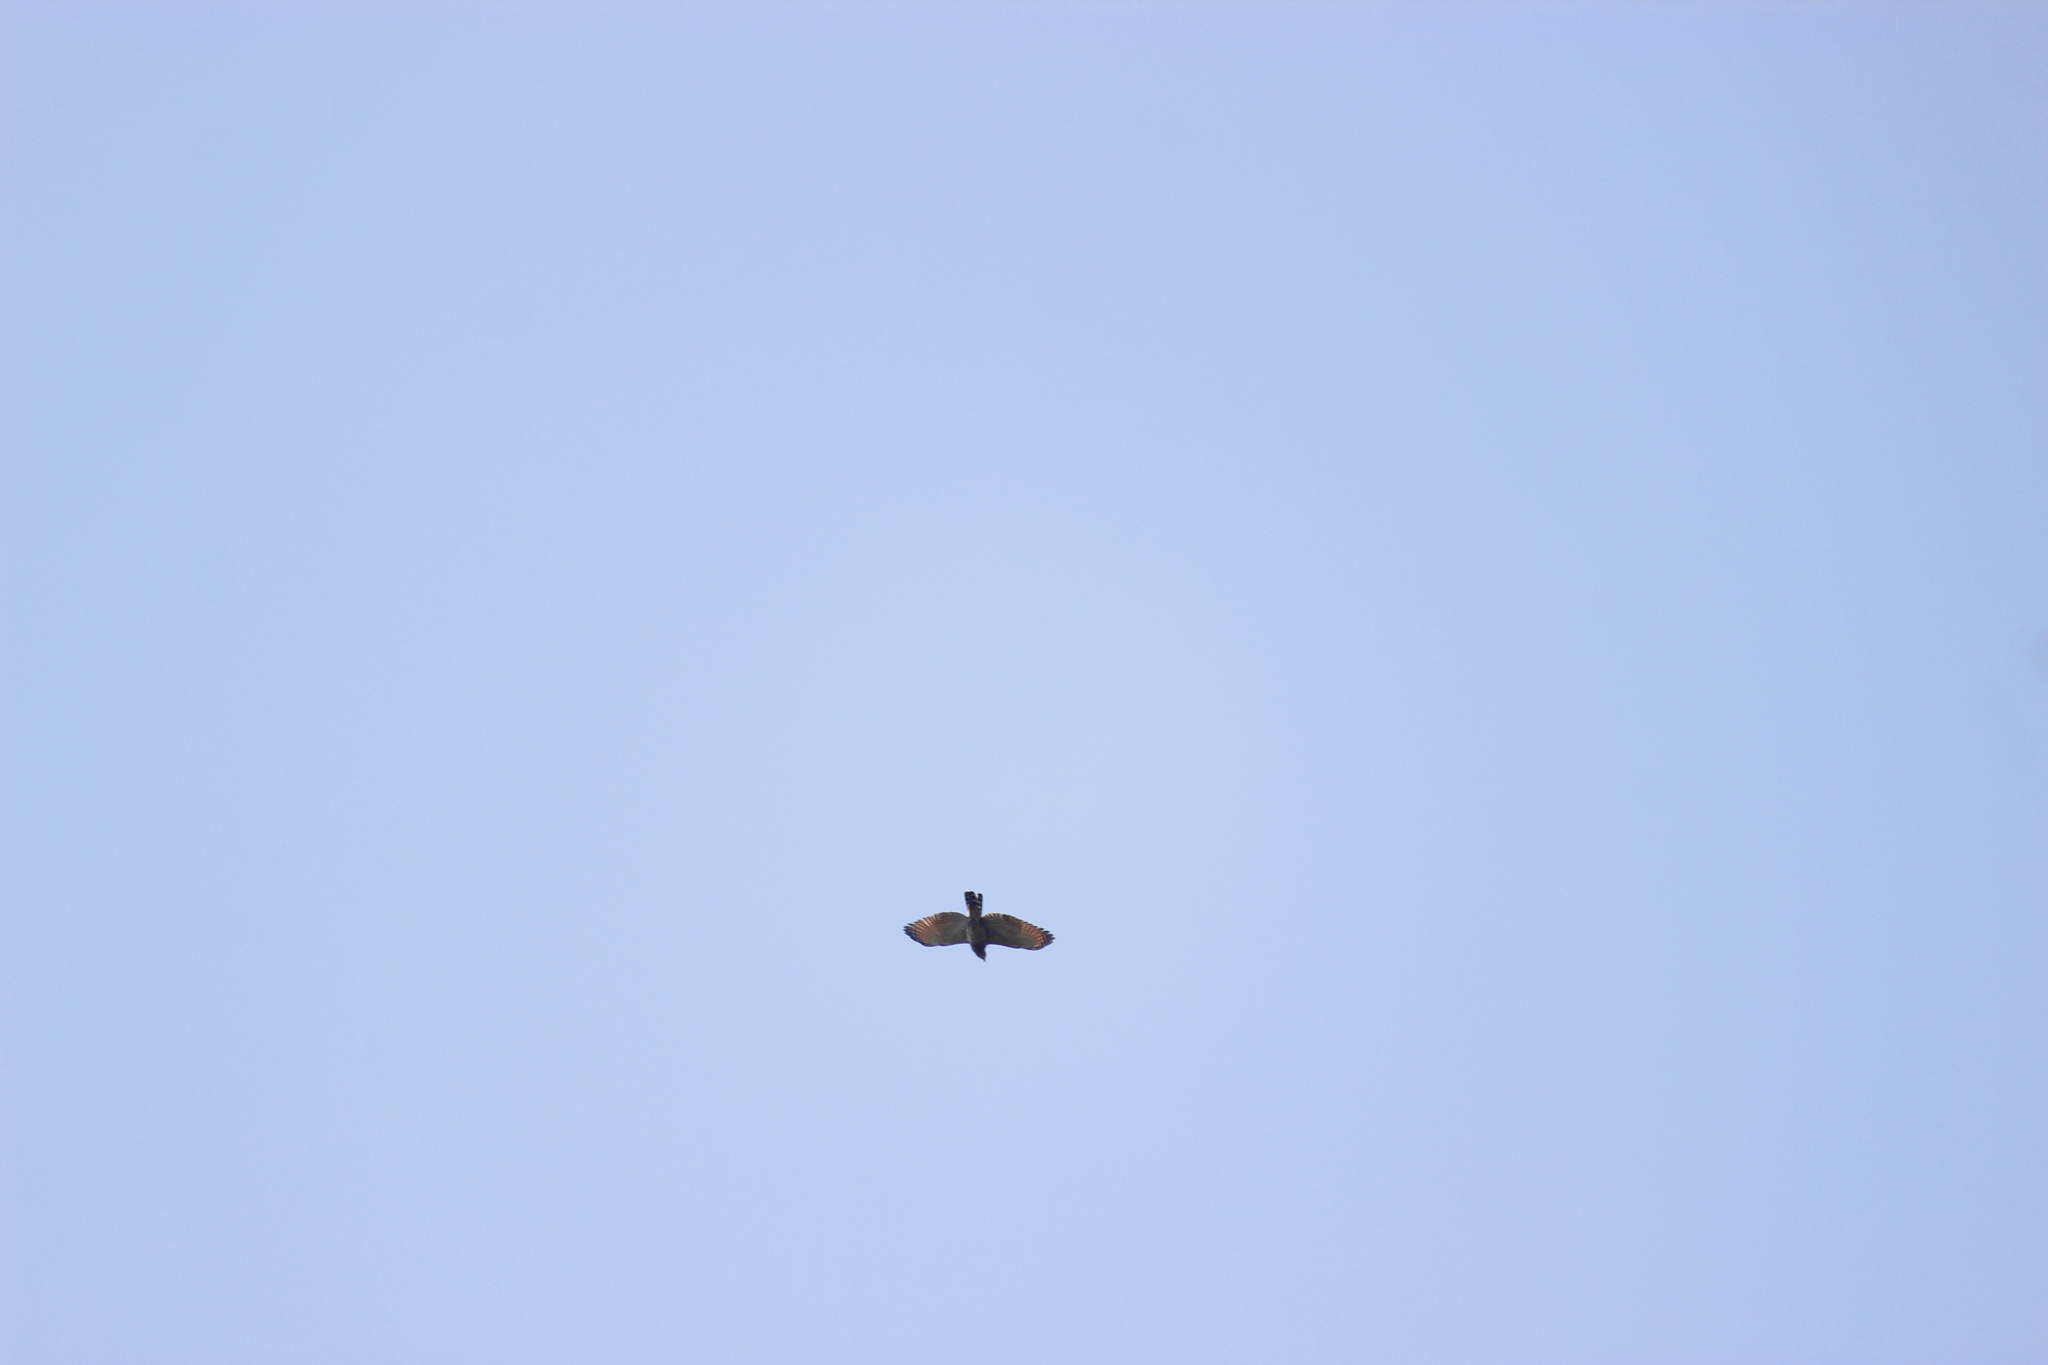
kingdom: Animalia
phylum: Chordata
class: Aves
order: Accipitriformes
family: Accipitridae
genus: Rupornis
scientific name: Rupornis magnirostris
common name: Roadside hawk
